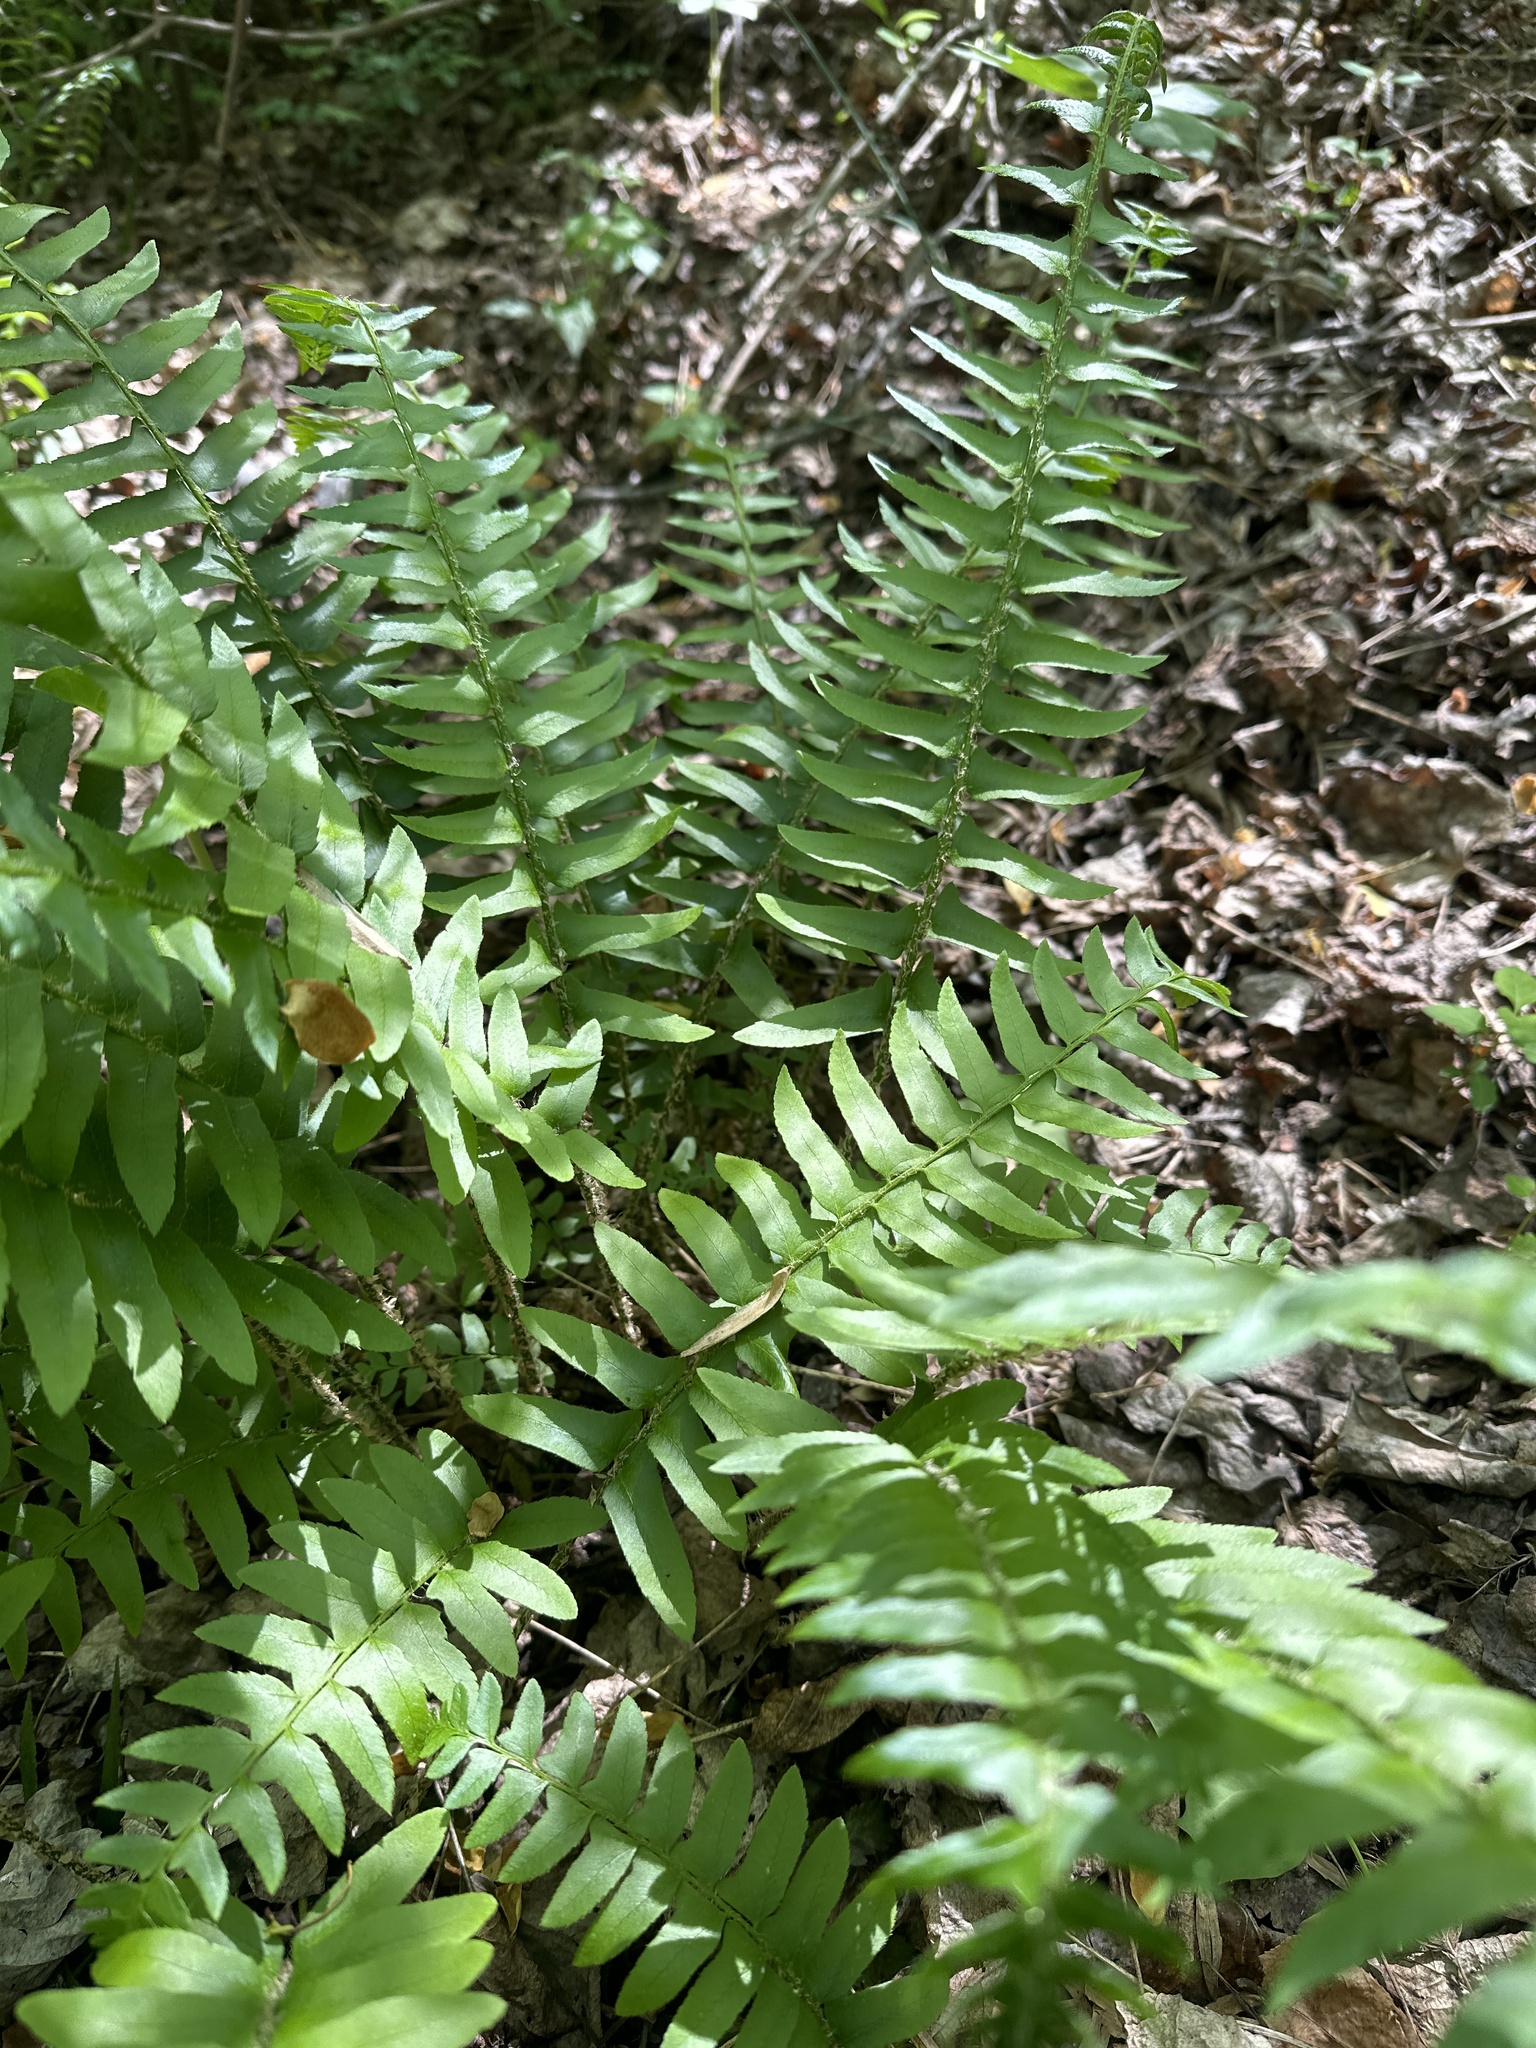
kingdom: Plantae
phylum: Tracheophyta
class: Polypodiopsida
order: Polypodiales
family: Dryopteridaceae
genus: Polystichum
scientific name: Polystichum acrostichoides
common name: Christmas fern
